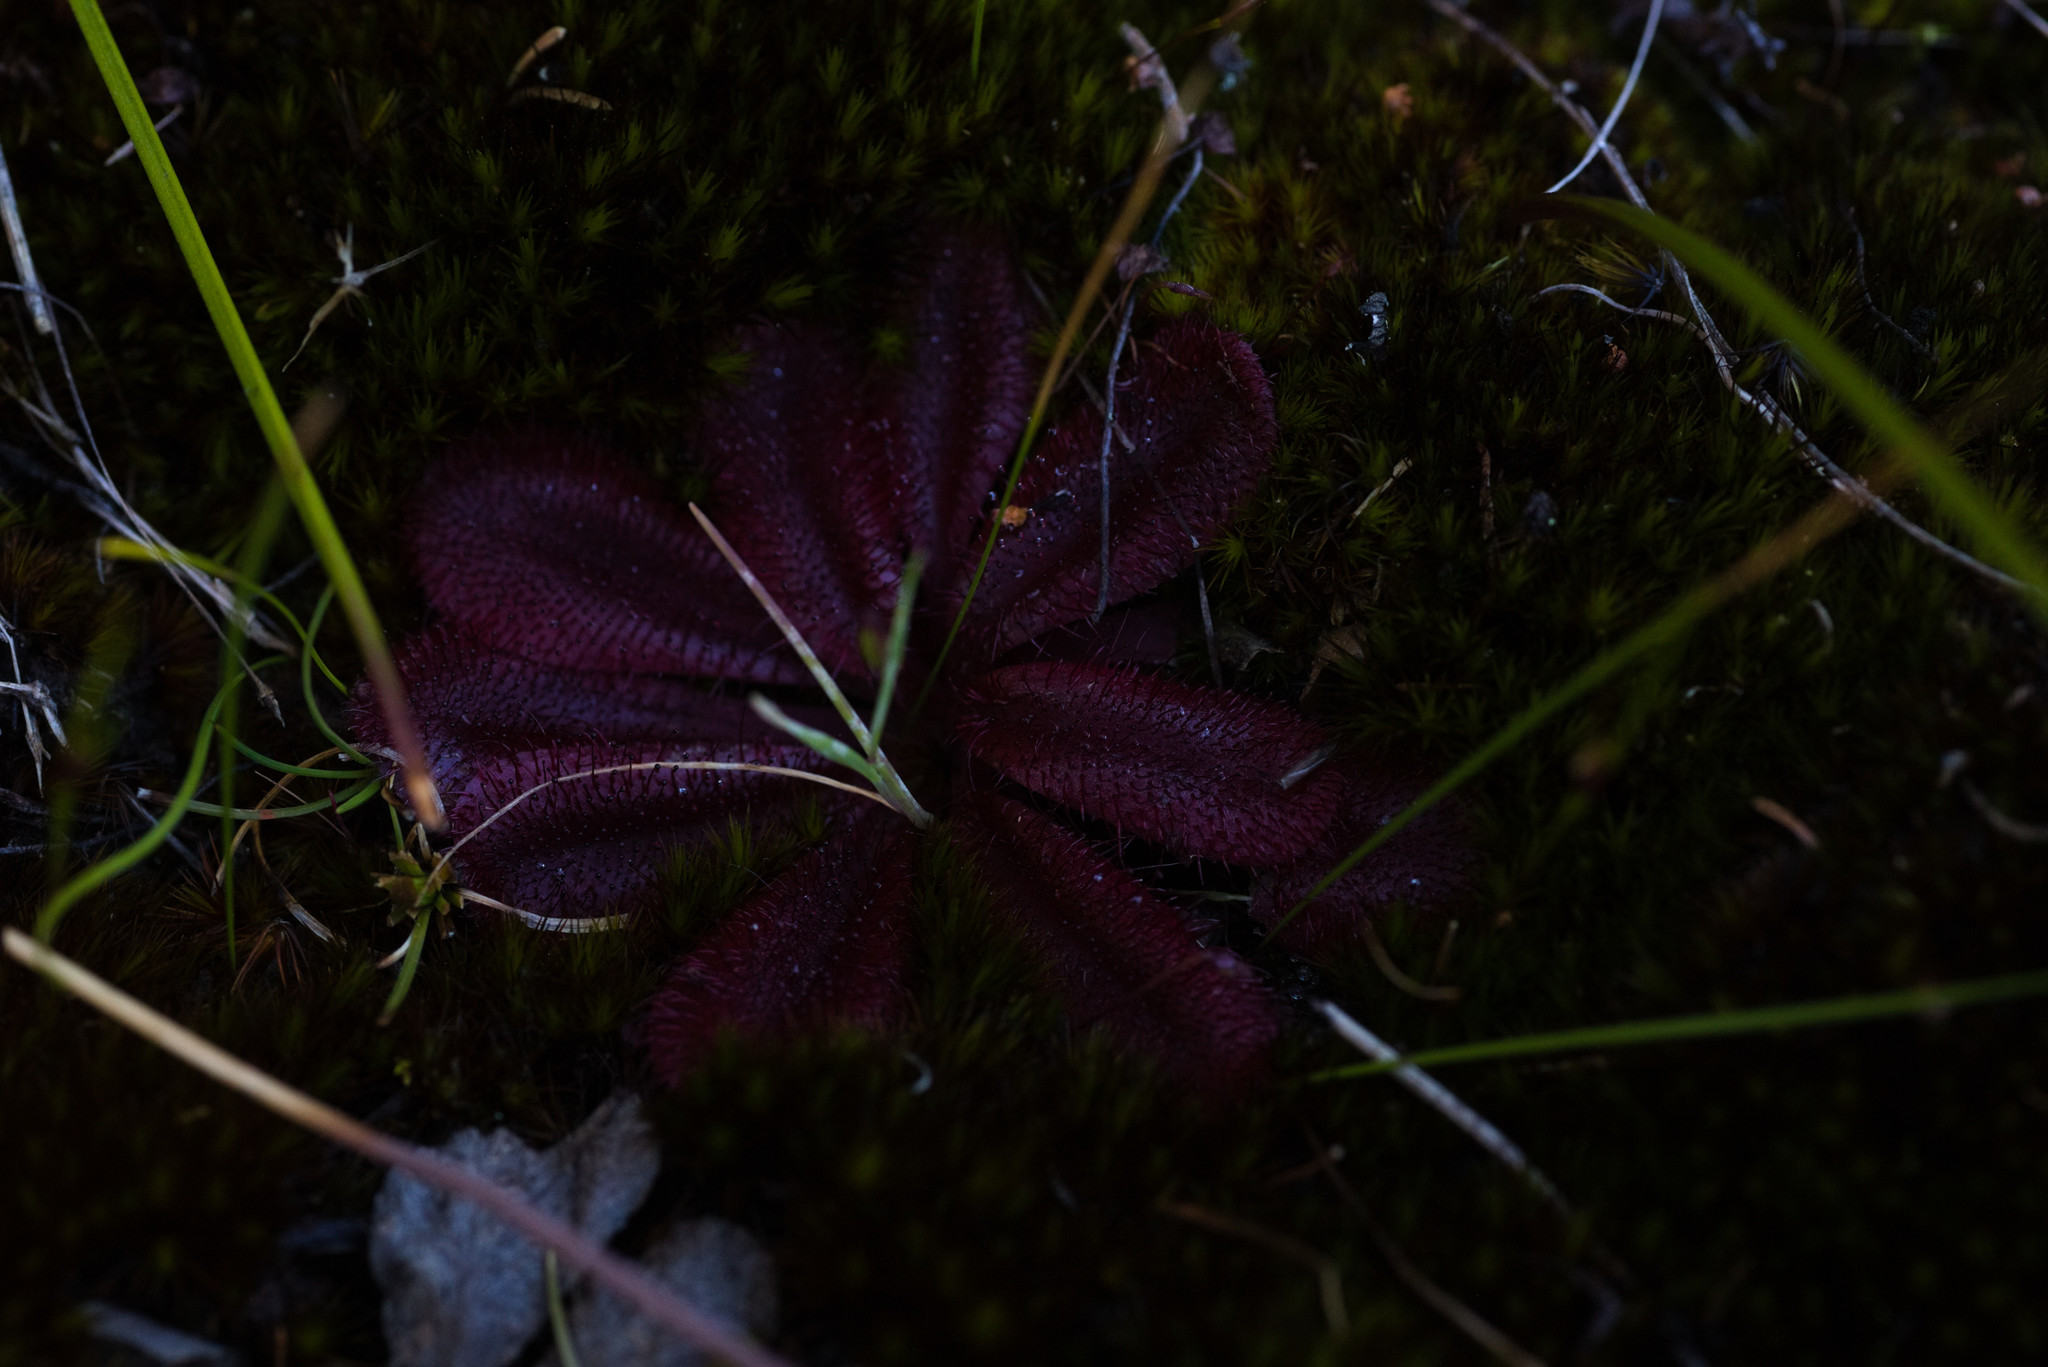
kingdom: Plantae
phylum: Tracheophyta
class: Magnoliopsida
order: Caryophyllales
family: Droseraceae
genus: Drosera
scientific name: Drosera rosulata
